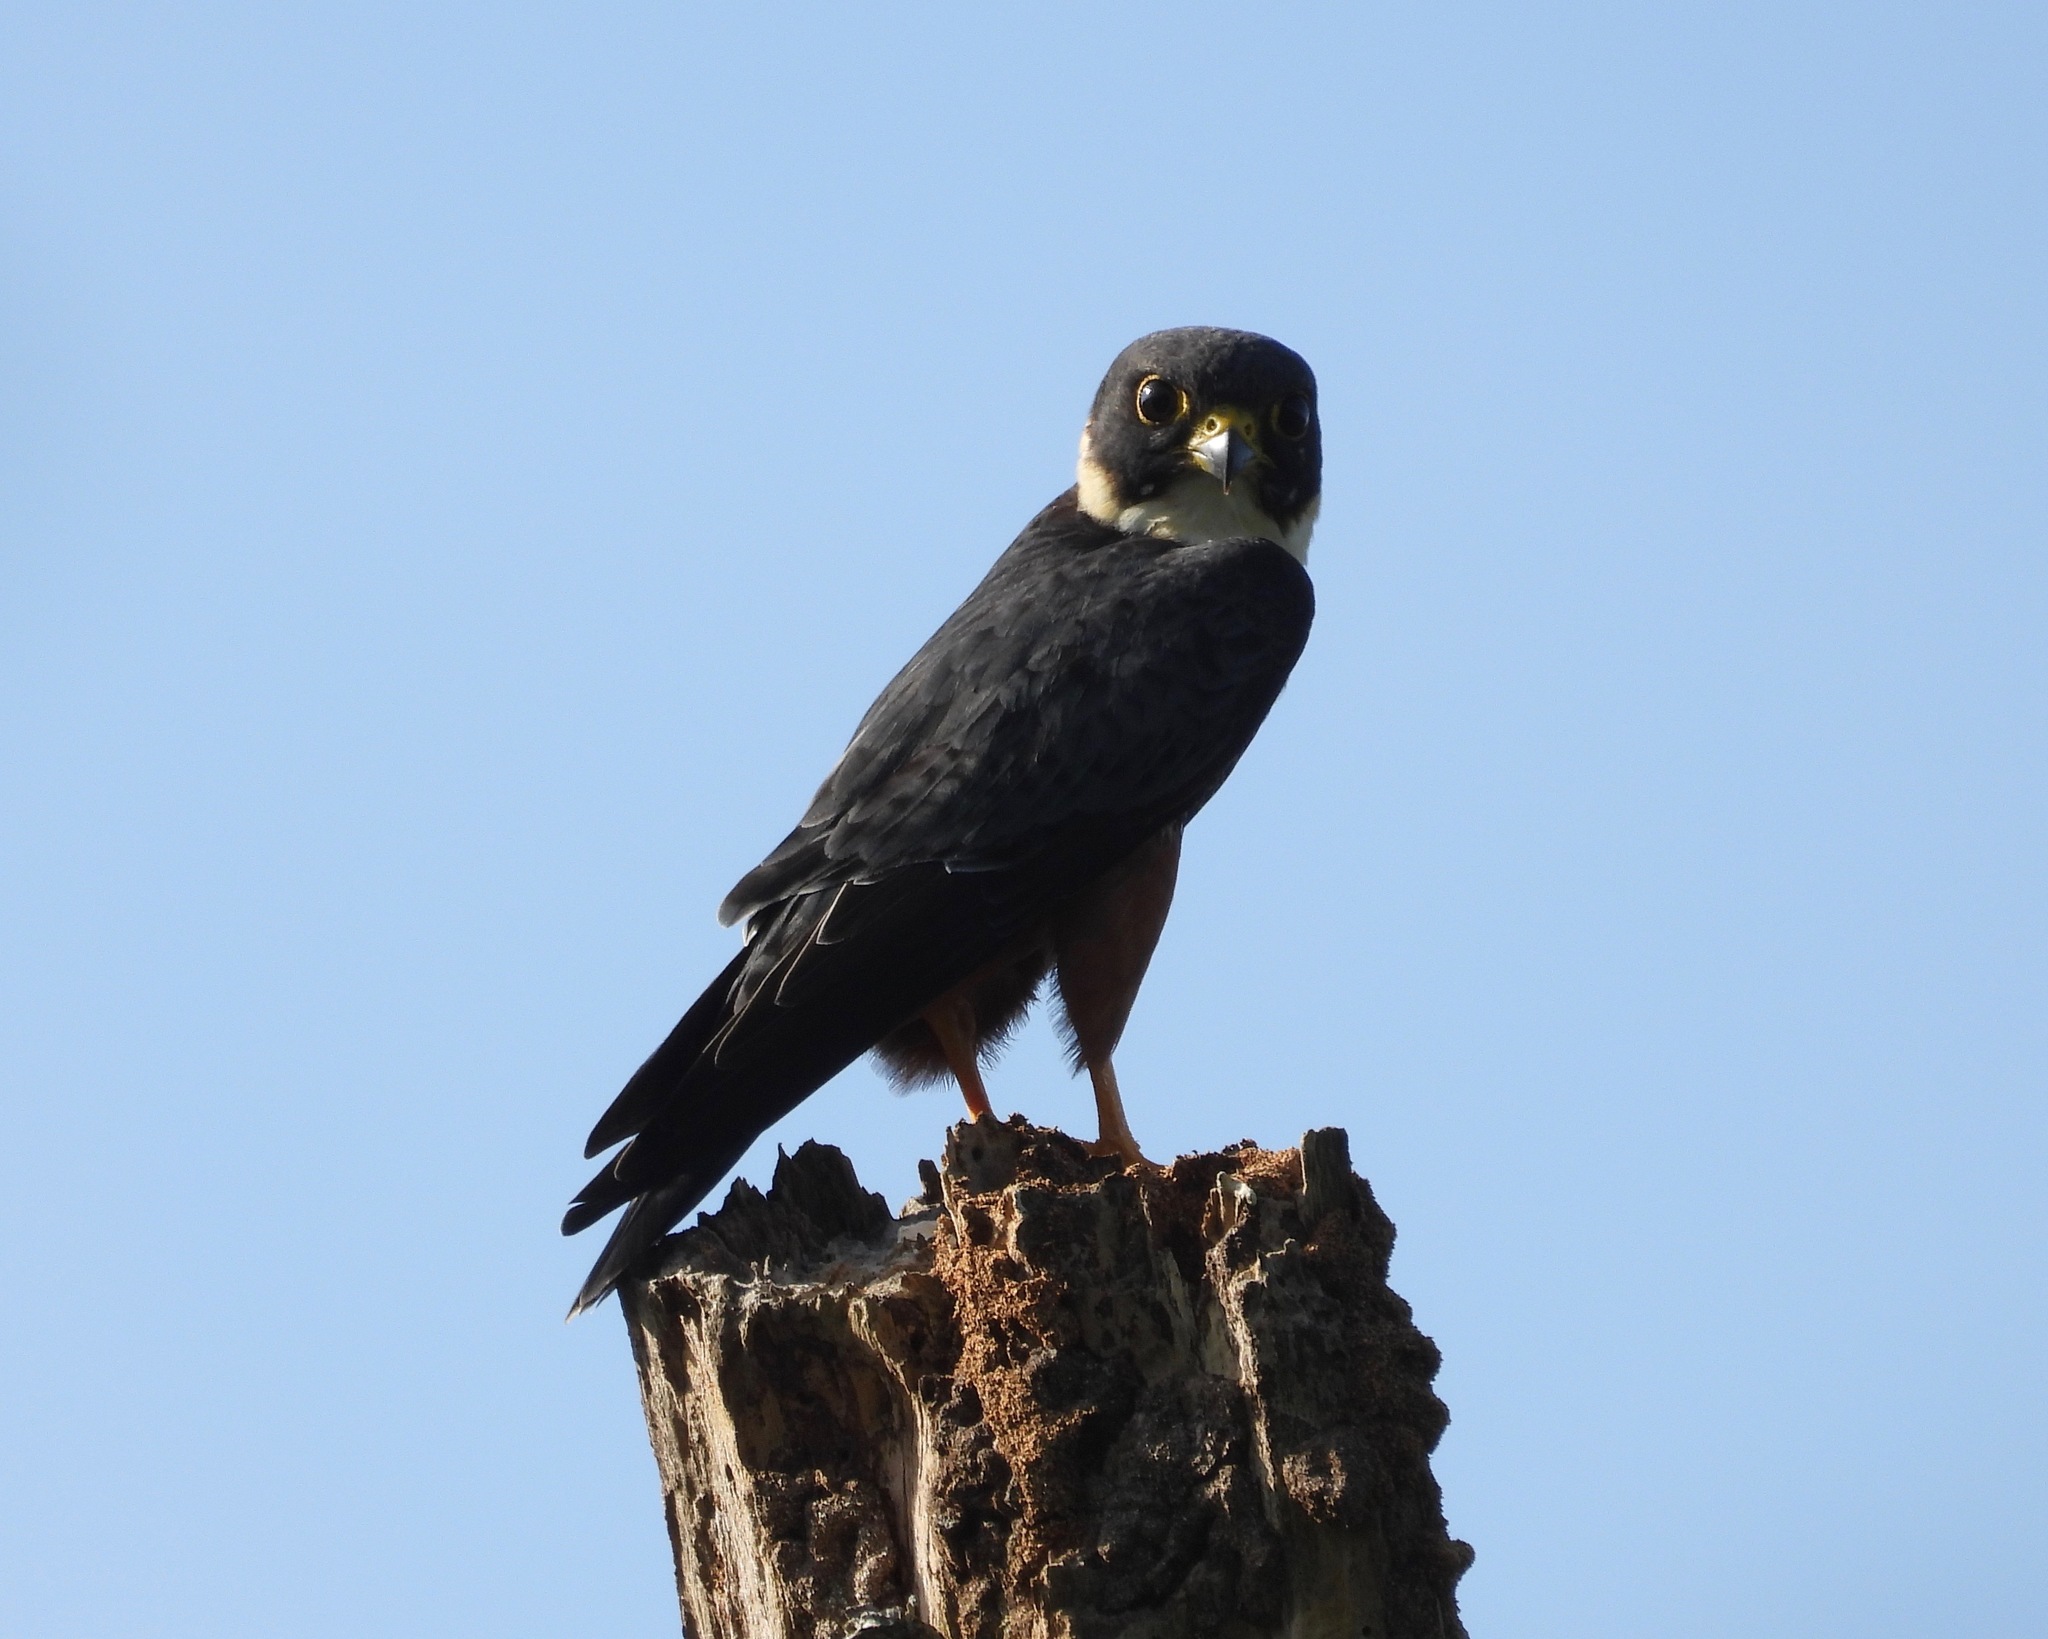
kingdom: Animalia
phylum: Chordata
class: Aves
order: Falconiformes
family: Falconidae
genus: Falco
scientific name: Falco rufigularis
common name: Bat falcon
